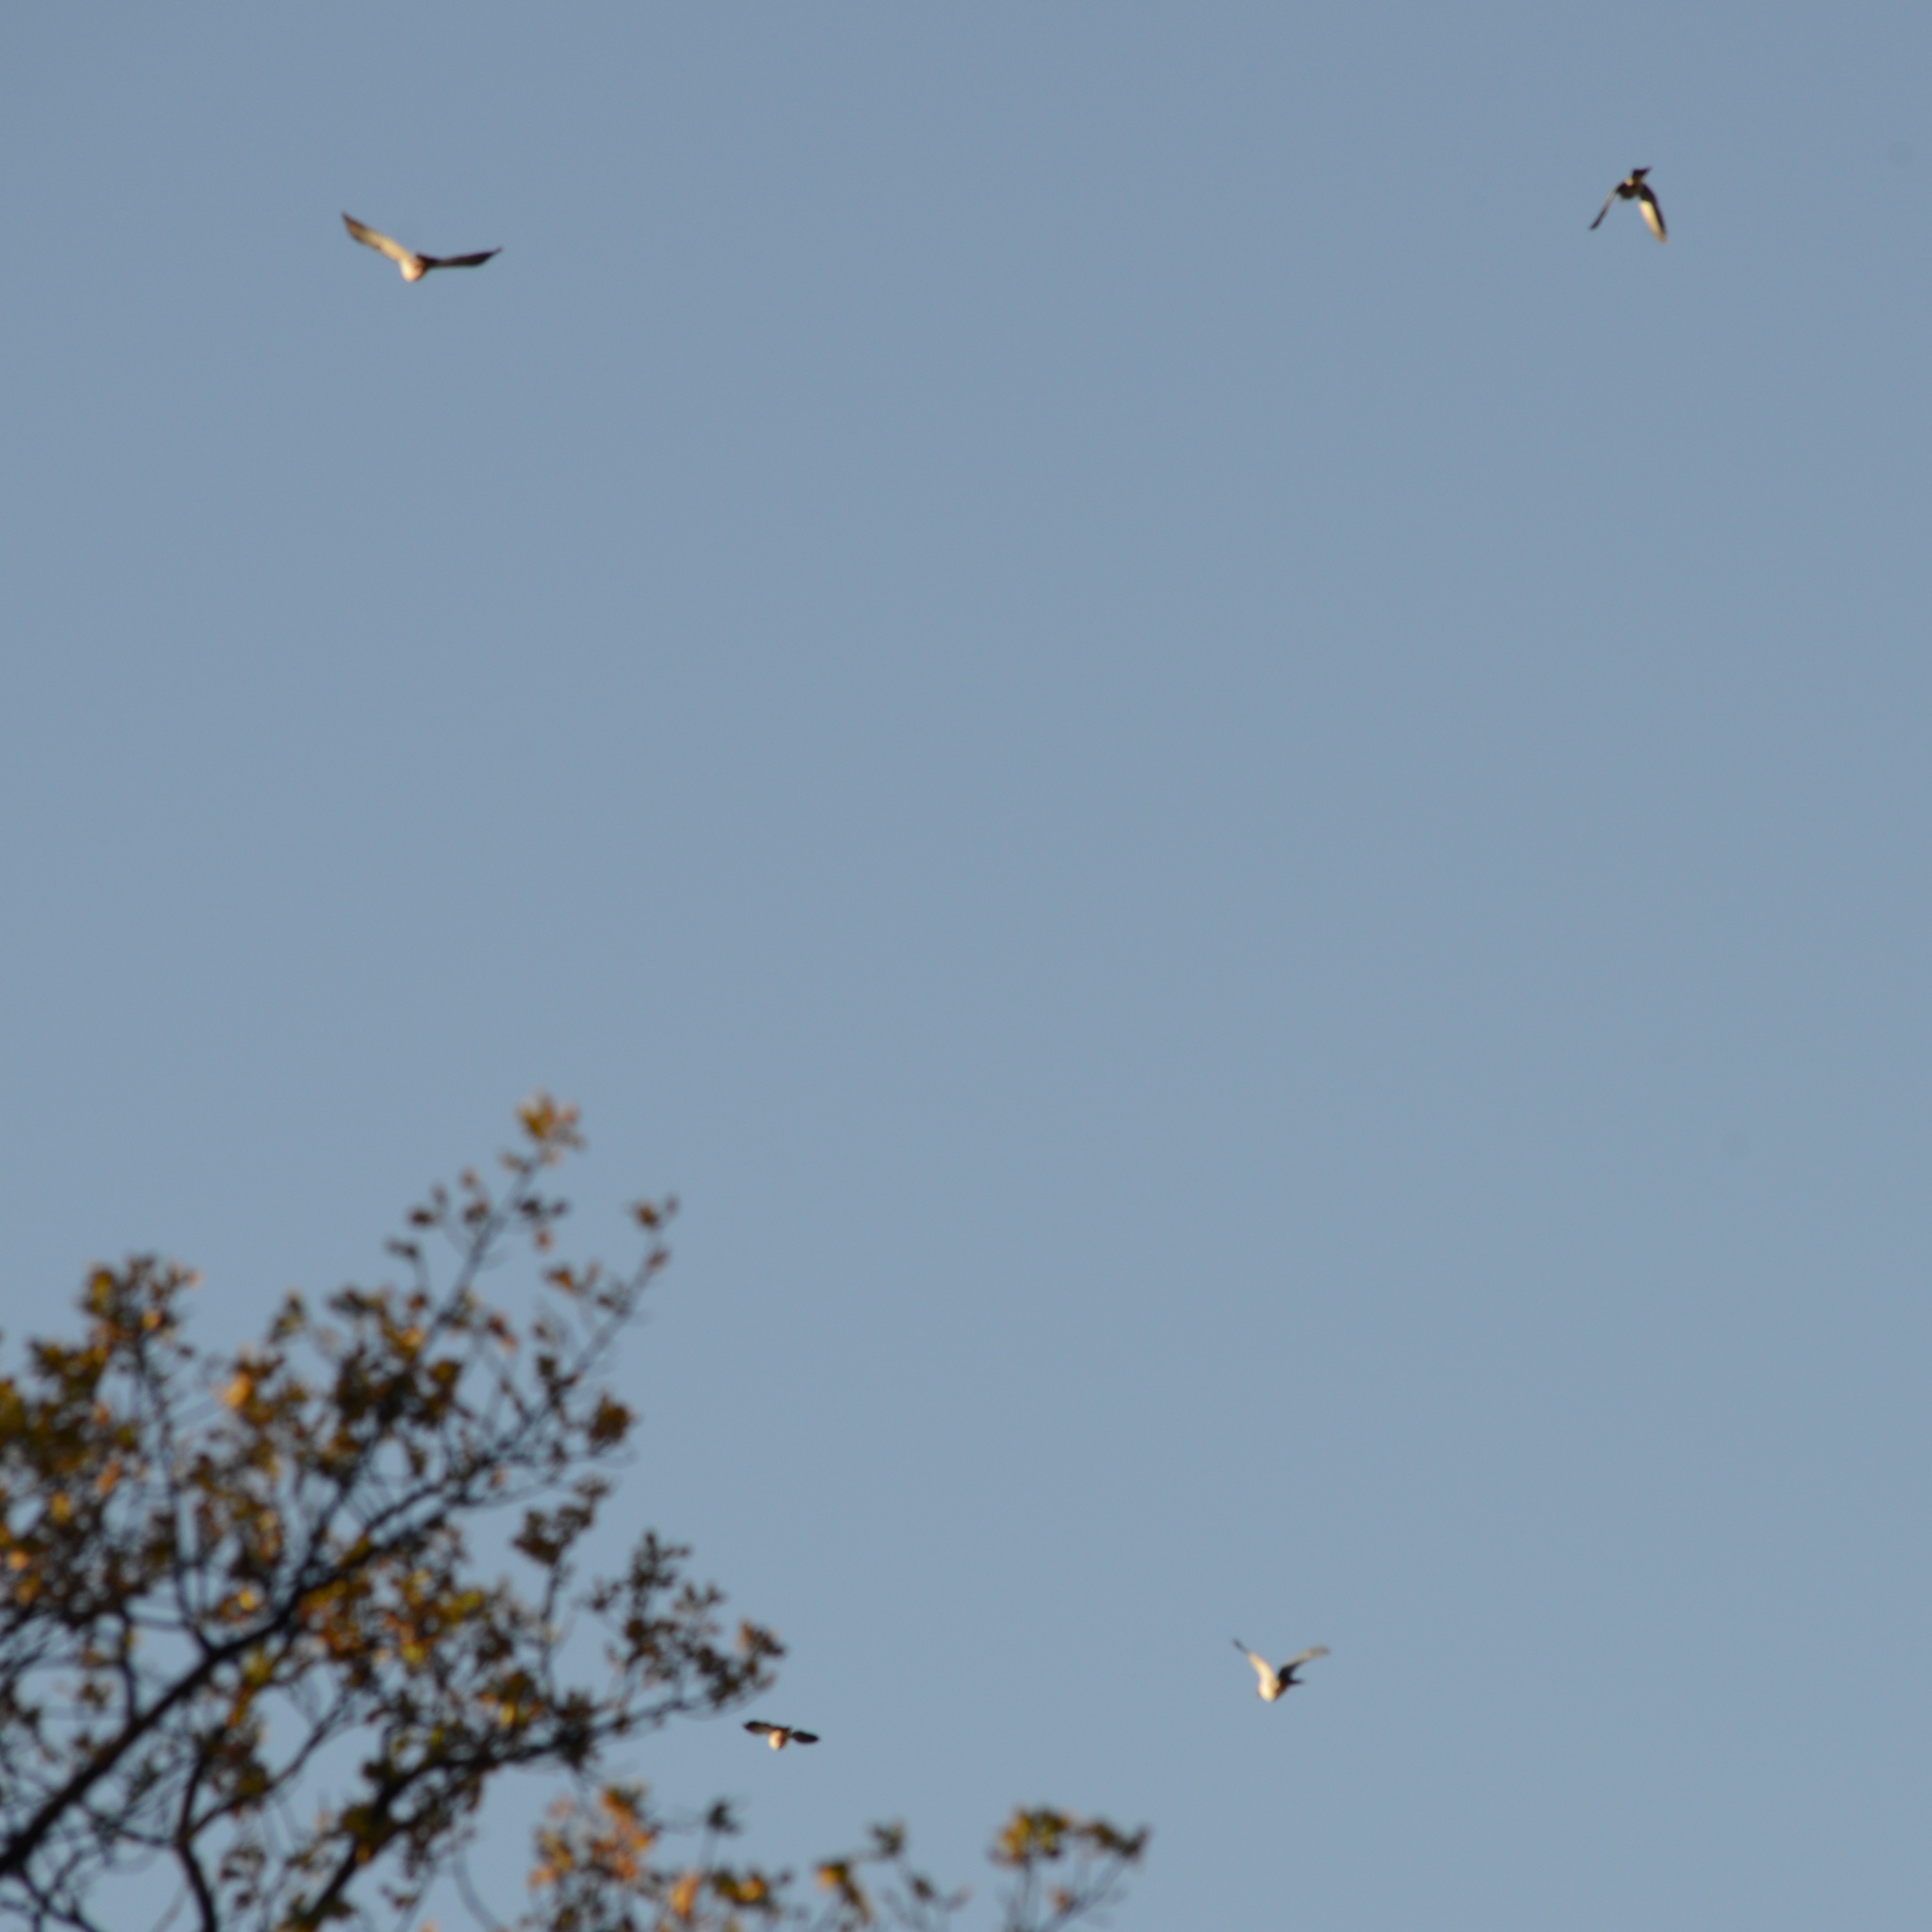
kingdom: Animalia
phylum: Chordata
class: Aves
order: Columbiformes
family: Columbidae
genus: Columba
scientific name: Columba livia
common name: Rock pigeon
